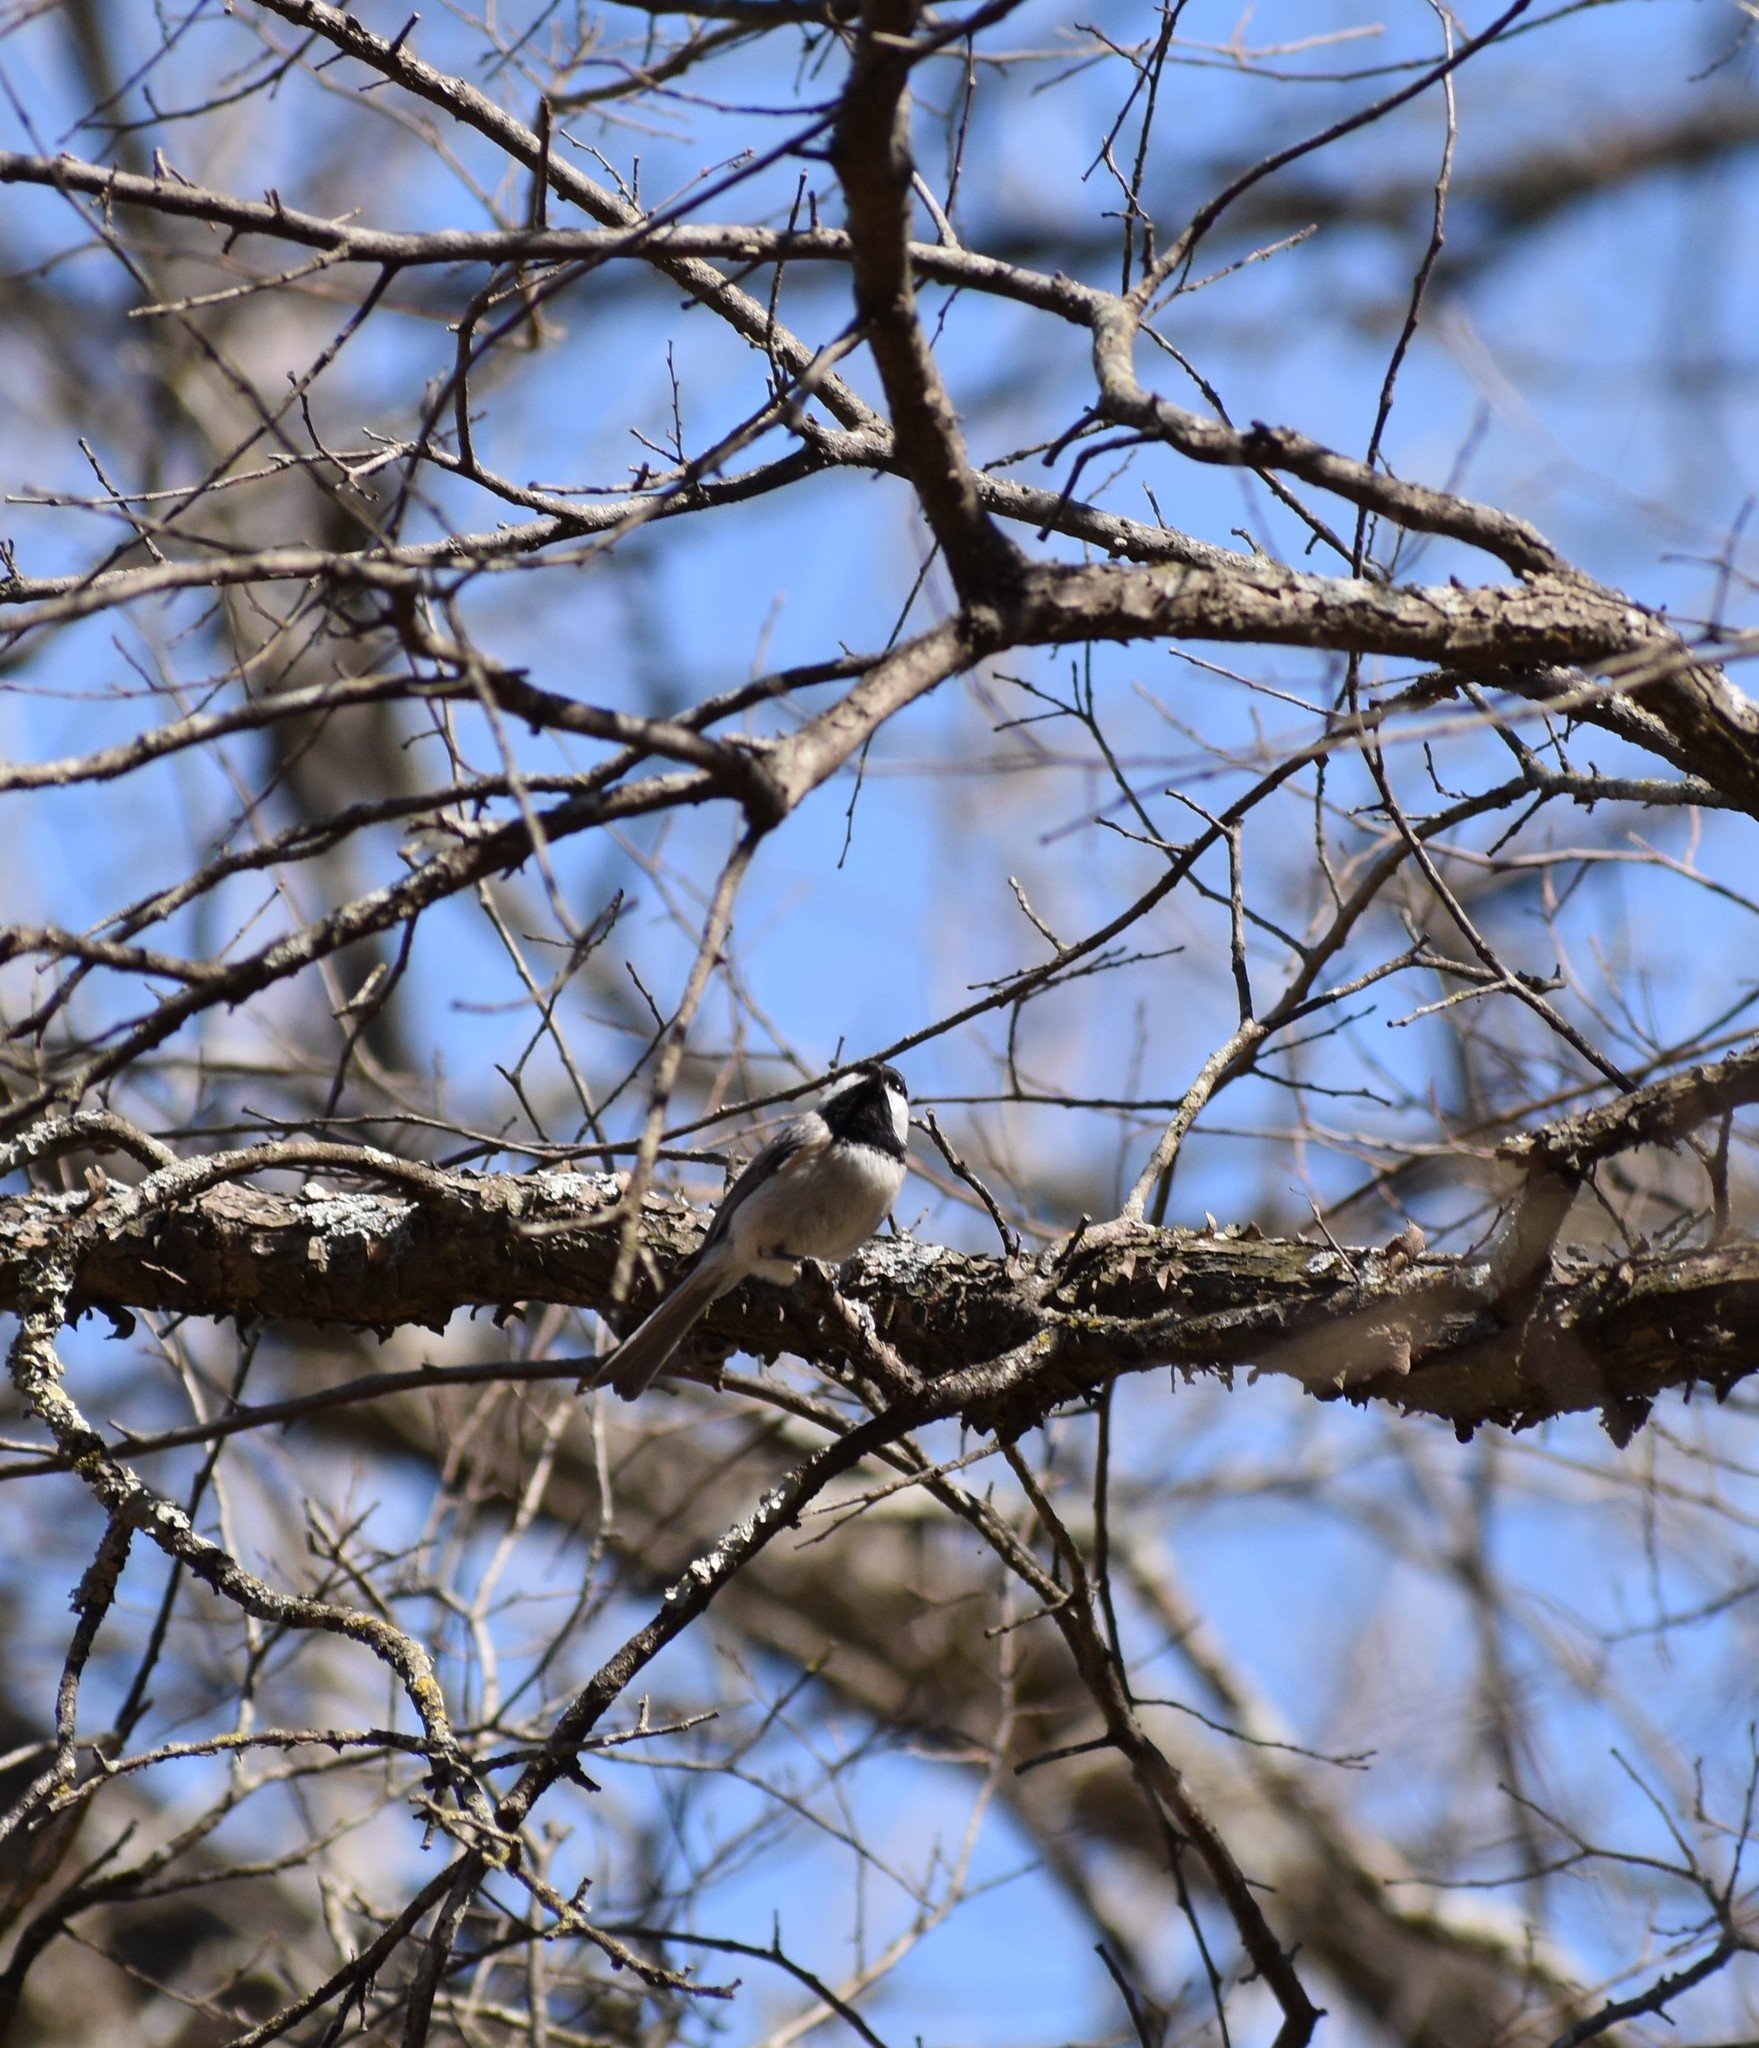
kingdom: Animalia
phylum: Chordata
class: Aves
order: Passeriformes
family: Paridae
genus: Poecile
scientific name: Poecile carolinensis
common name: Carolina chickadee
